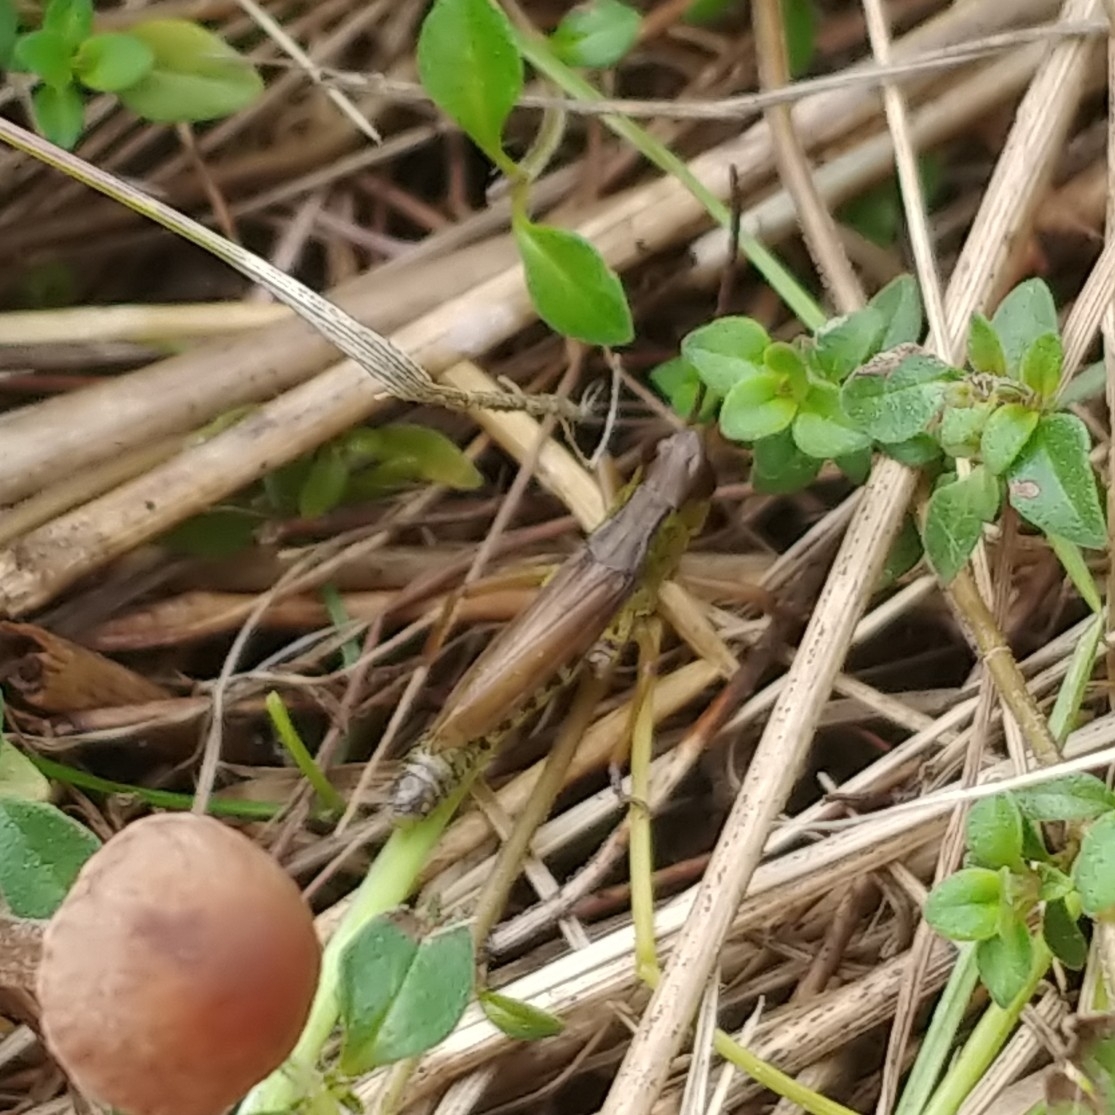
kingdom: Animalia
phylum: Arthropoda
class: Insecta
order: Orthoptera
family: Acrididae
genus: Pseudochorthippus
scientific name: Pseudochorthippus curtipennis
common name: Marsh meadow grasshopper
